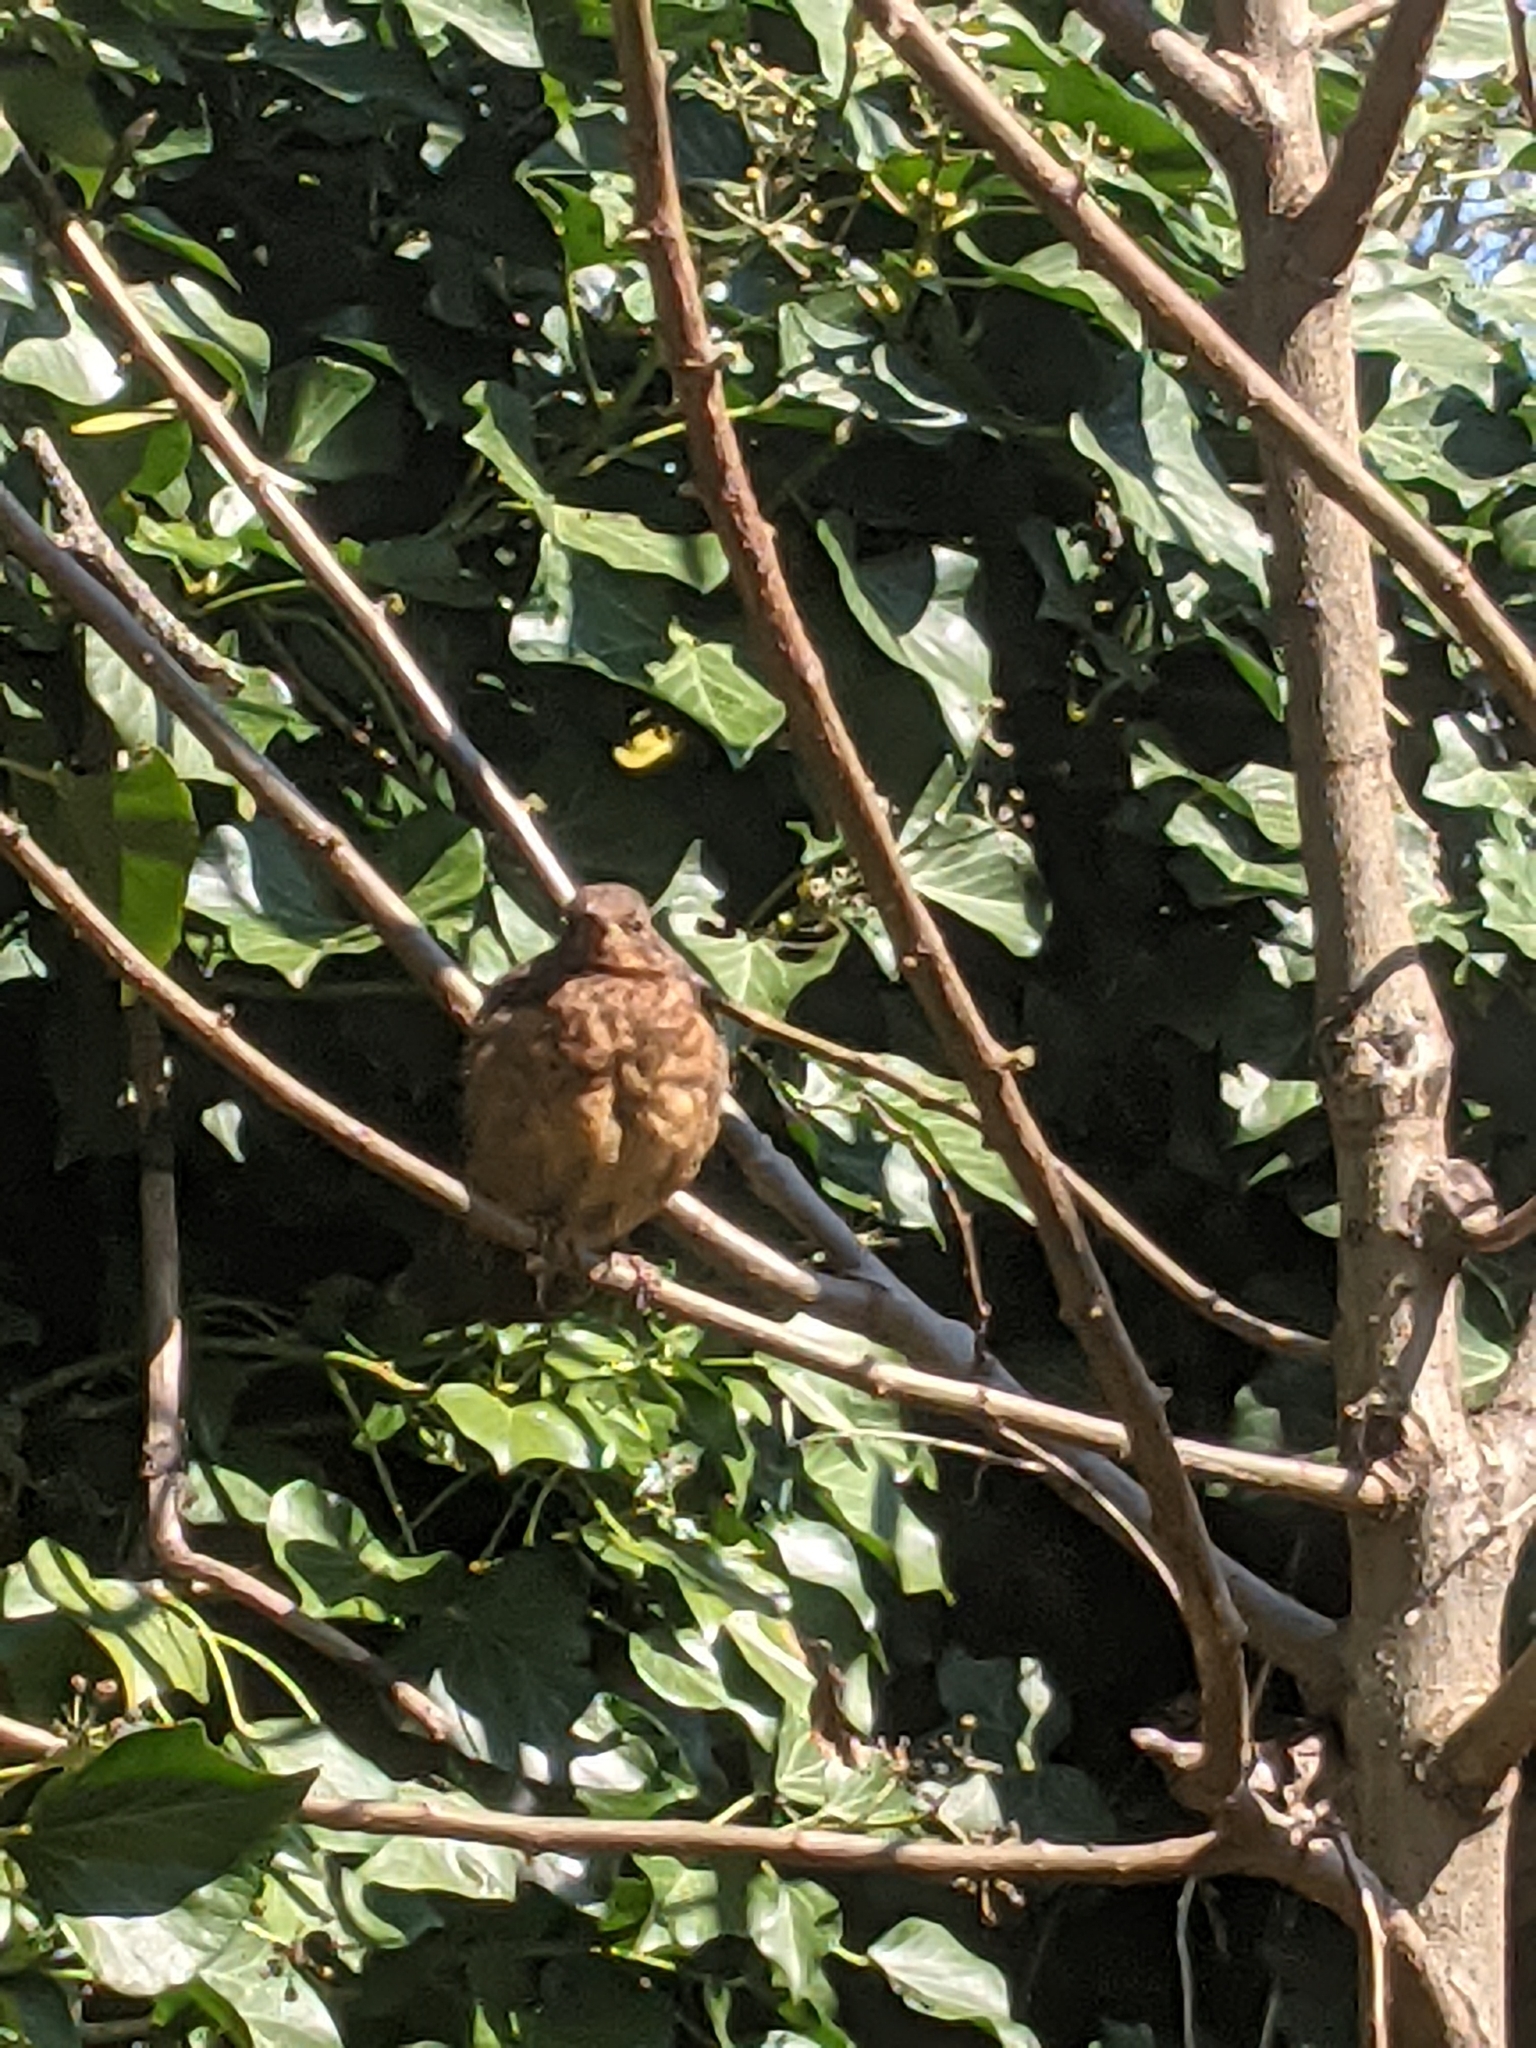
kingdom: Animalia
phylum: Chordata
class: Aves
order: Passeriformes
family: Turdidae
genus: Turdus
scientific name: Turdus merula
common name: Common blackbird
